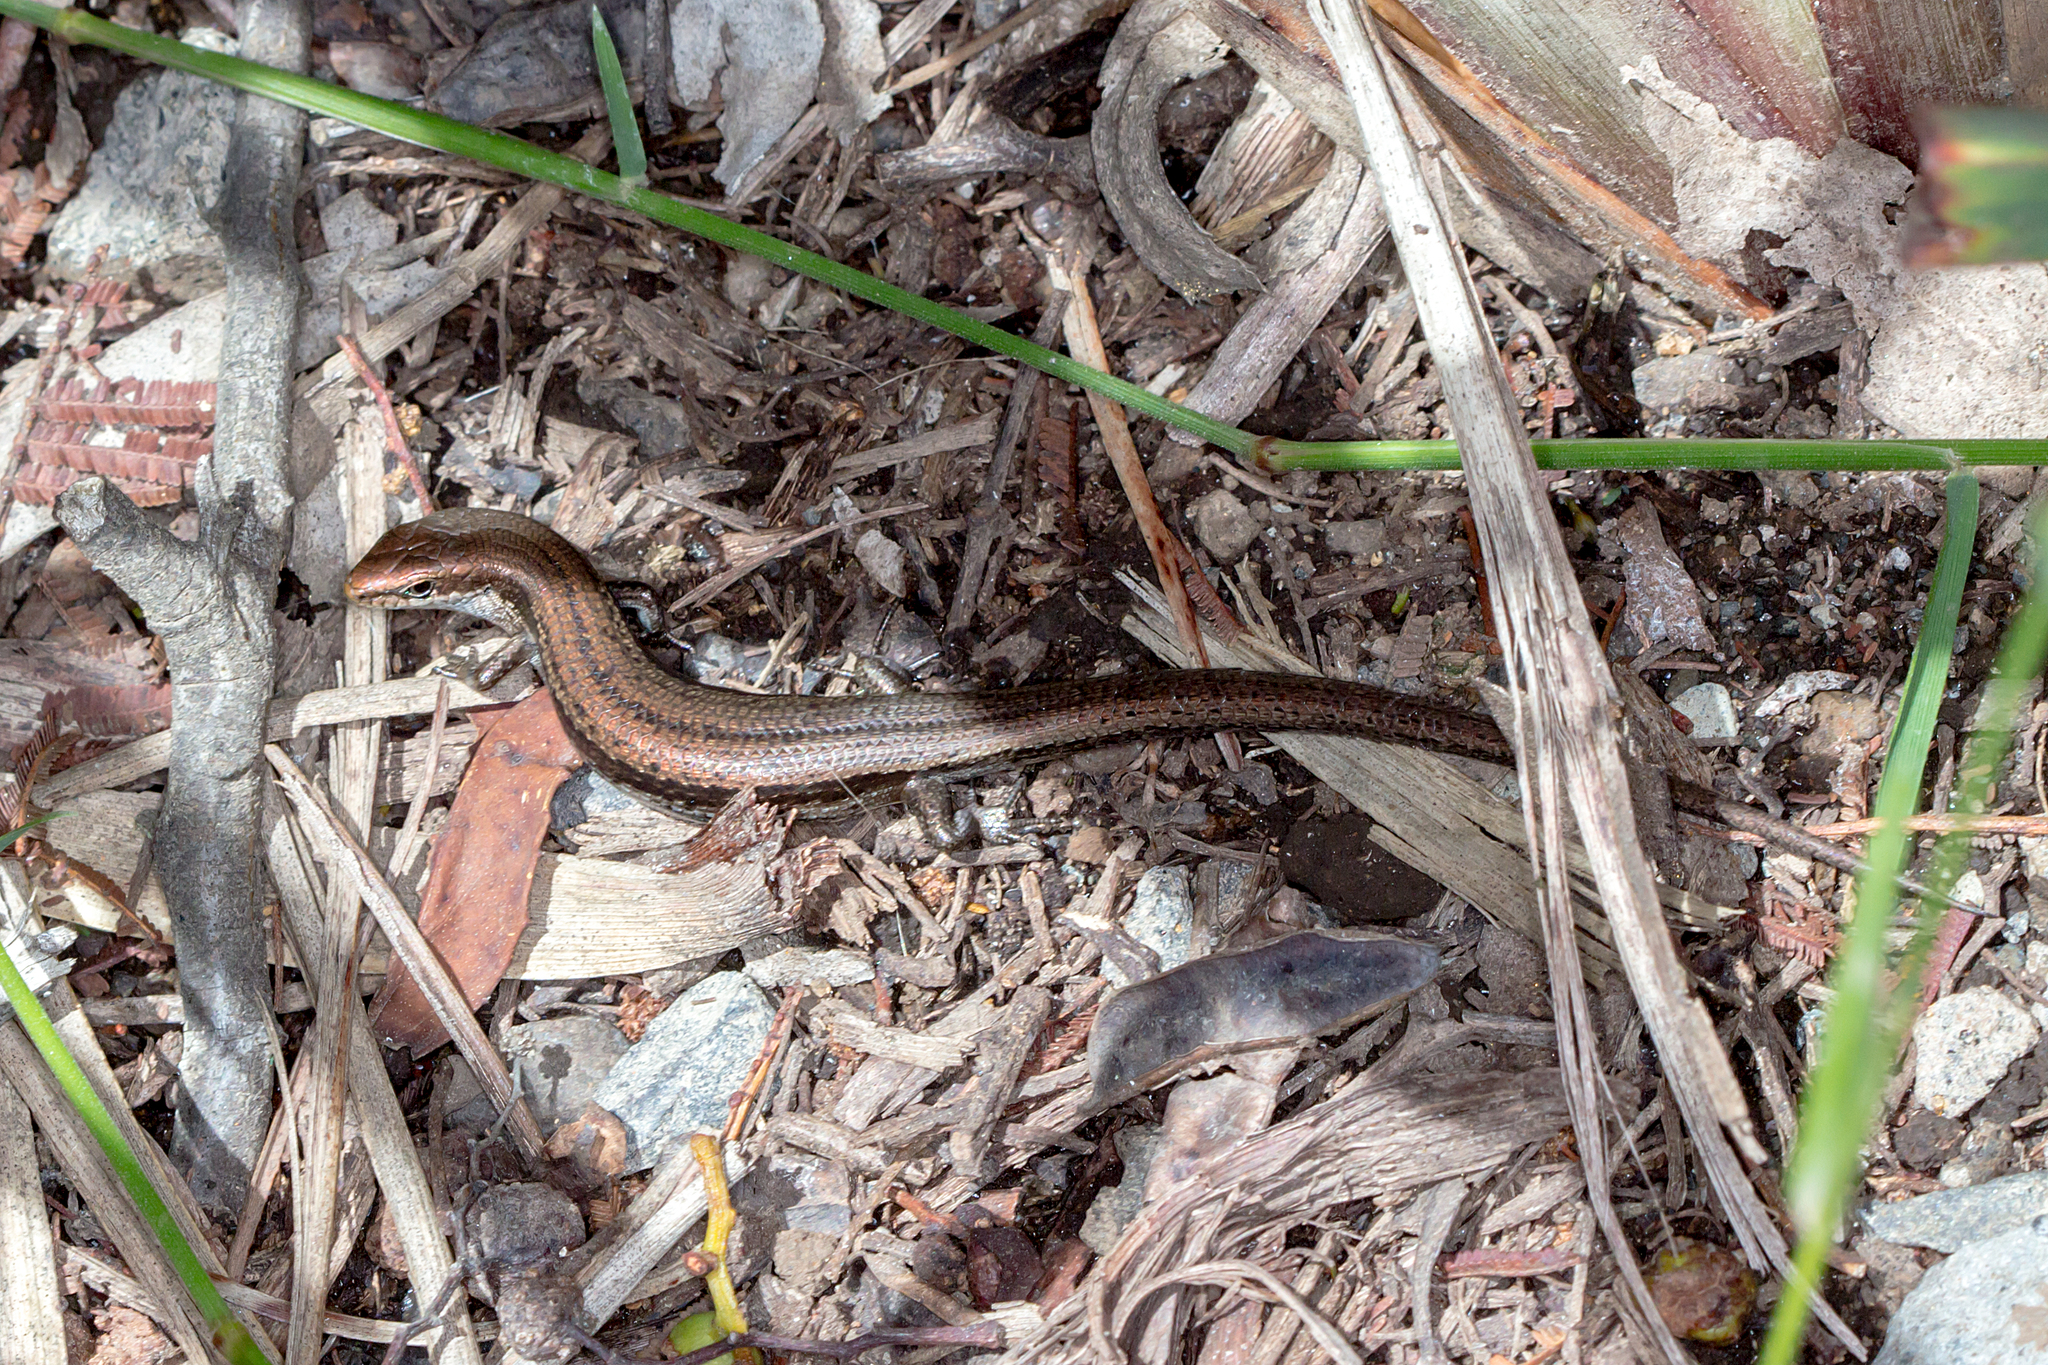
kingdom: Animalia
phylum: Chordata
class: Squamata
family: Scincidae
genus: Pseudemoia
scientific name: Pseudemoia entrecasteauxii
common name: Entrecasteaux's skink
